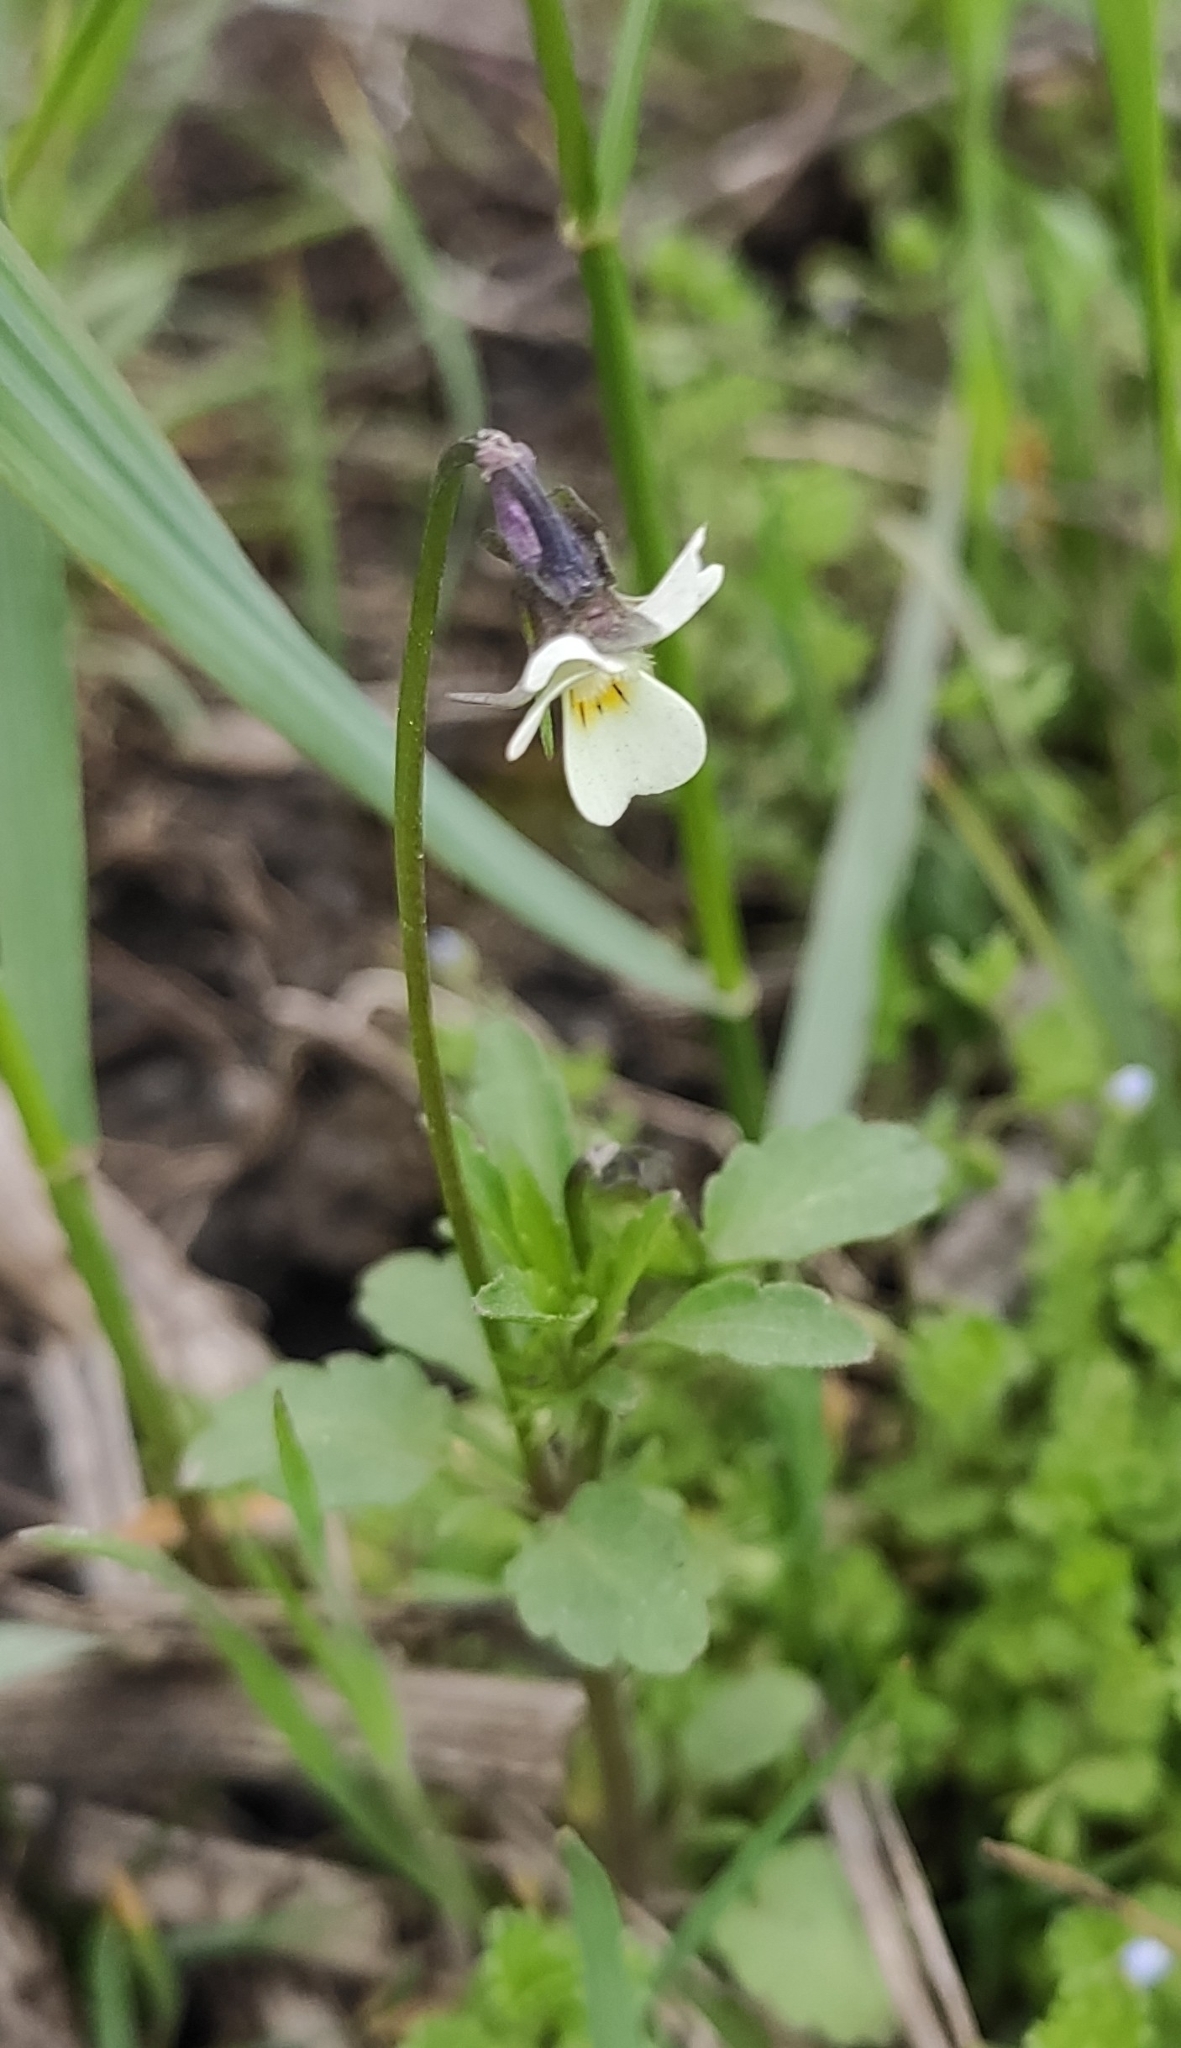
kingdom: Plantae
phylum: Tracheophyta
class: Magnoliopsida
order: Malpighiales
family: Violaceae
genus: Viola
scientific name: Viola arvensis
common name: Field pansy
